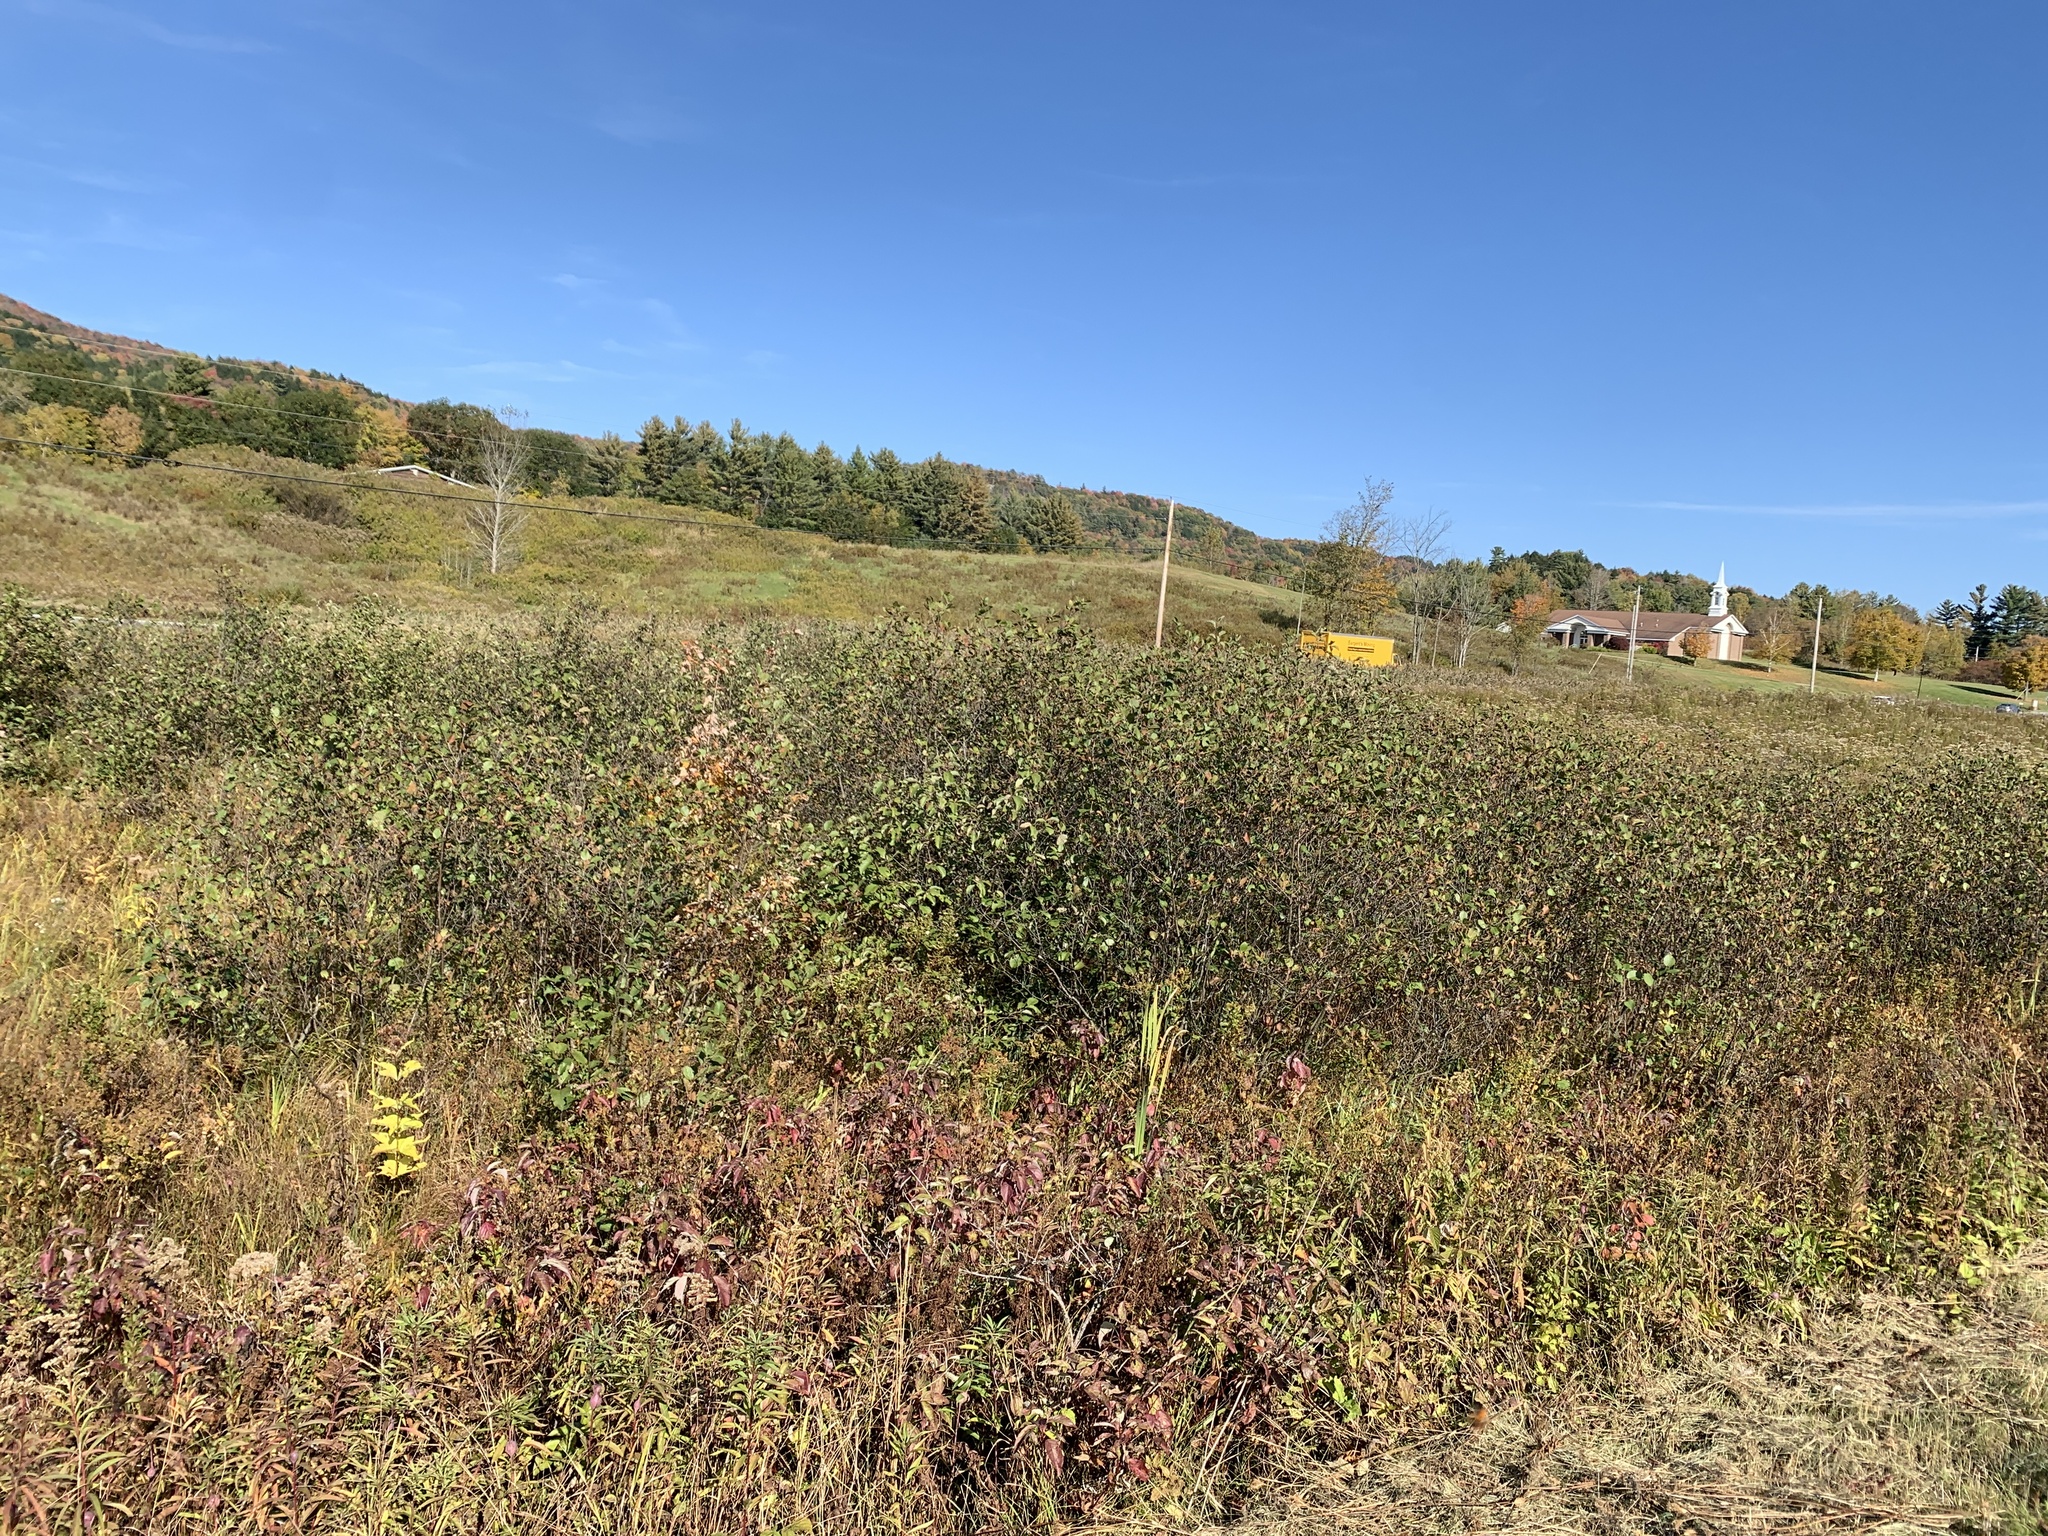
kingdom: Plantae
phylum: Tracheophyta
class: Magnoliopsida
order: Fagales
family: Betulaceae
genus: Alnus
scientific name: Alnus incana
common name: Grey alder
